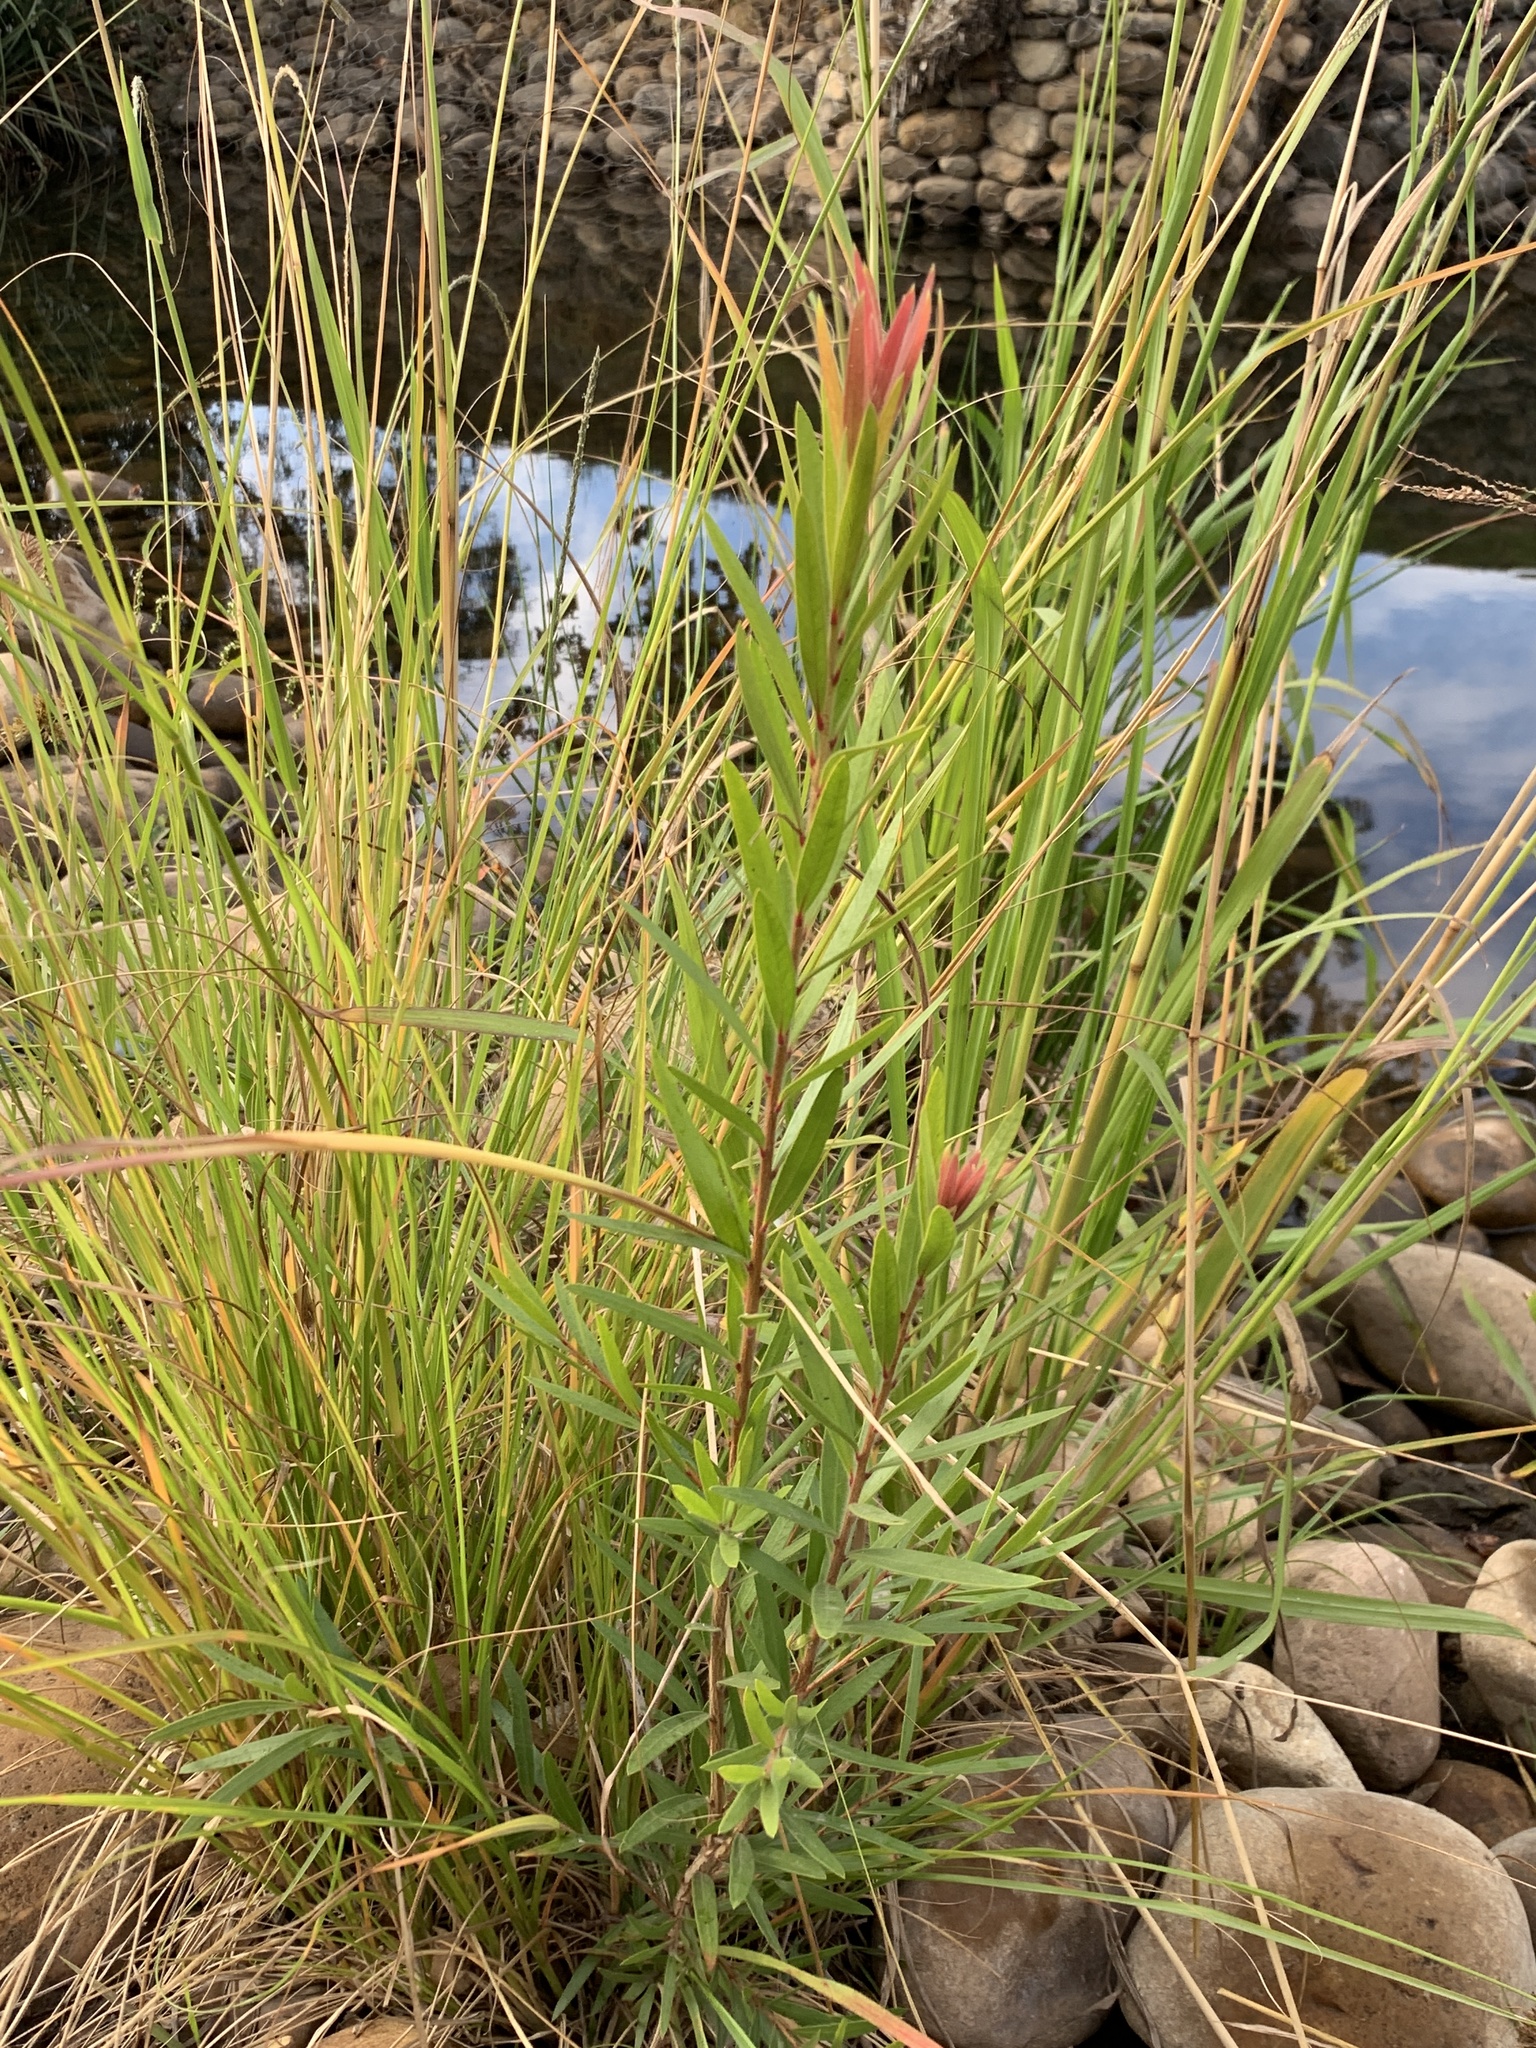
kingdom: Plantae
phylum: Tracheophyta
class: Magnoliopsida
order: Myrtales
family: Myrtaceae
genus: Callistemon
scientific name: Callistemon viminalis
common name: Drooping bottlebrush
